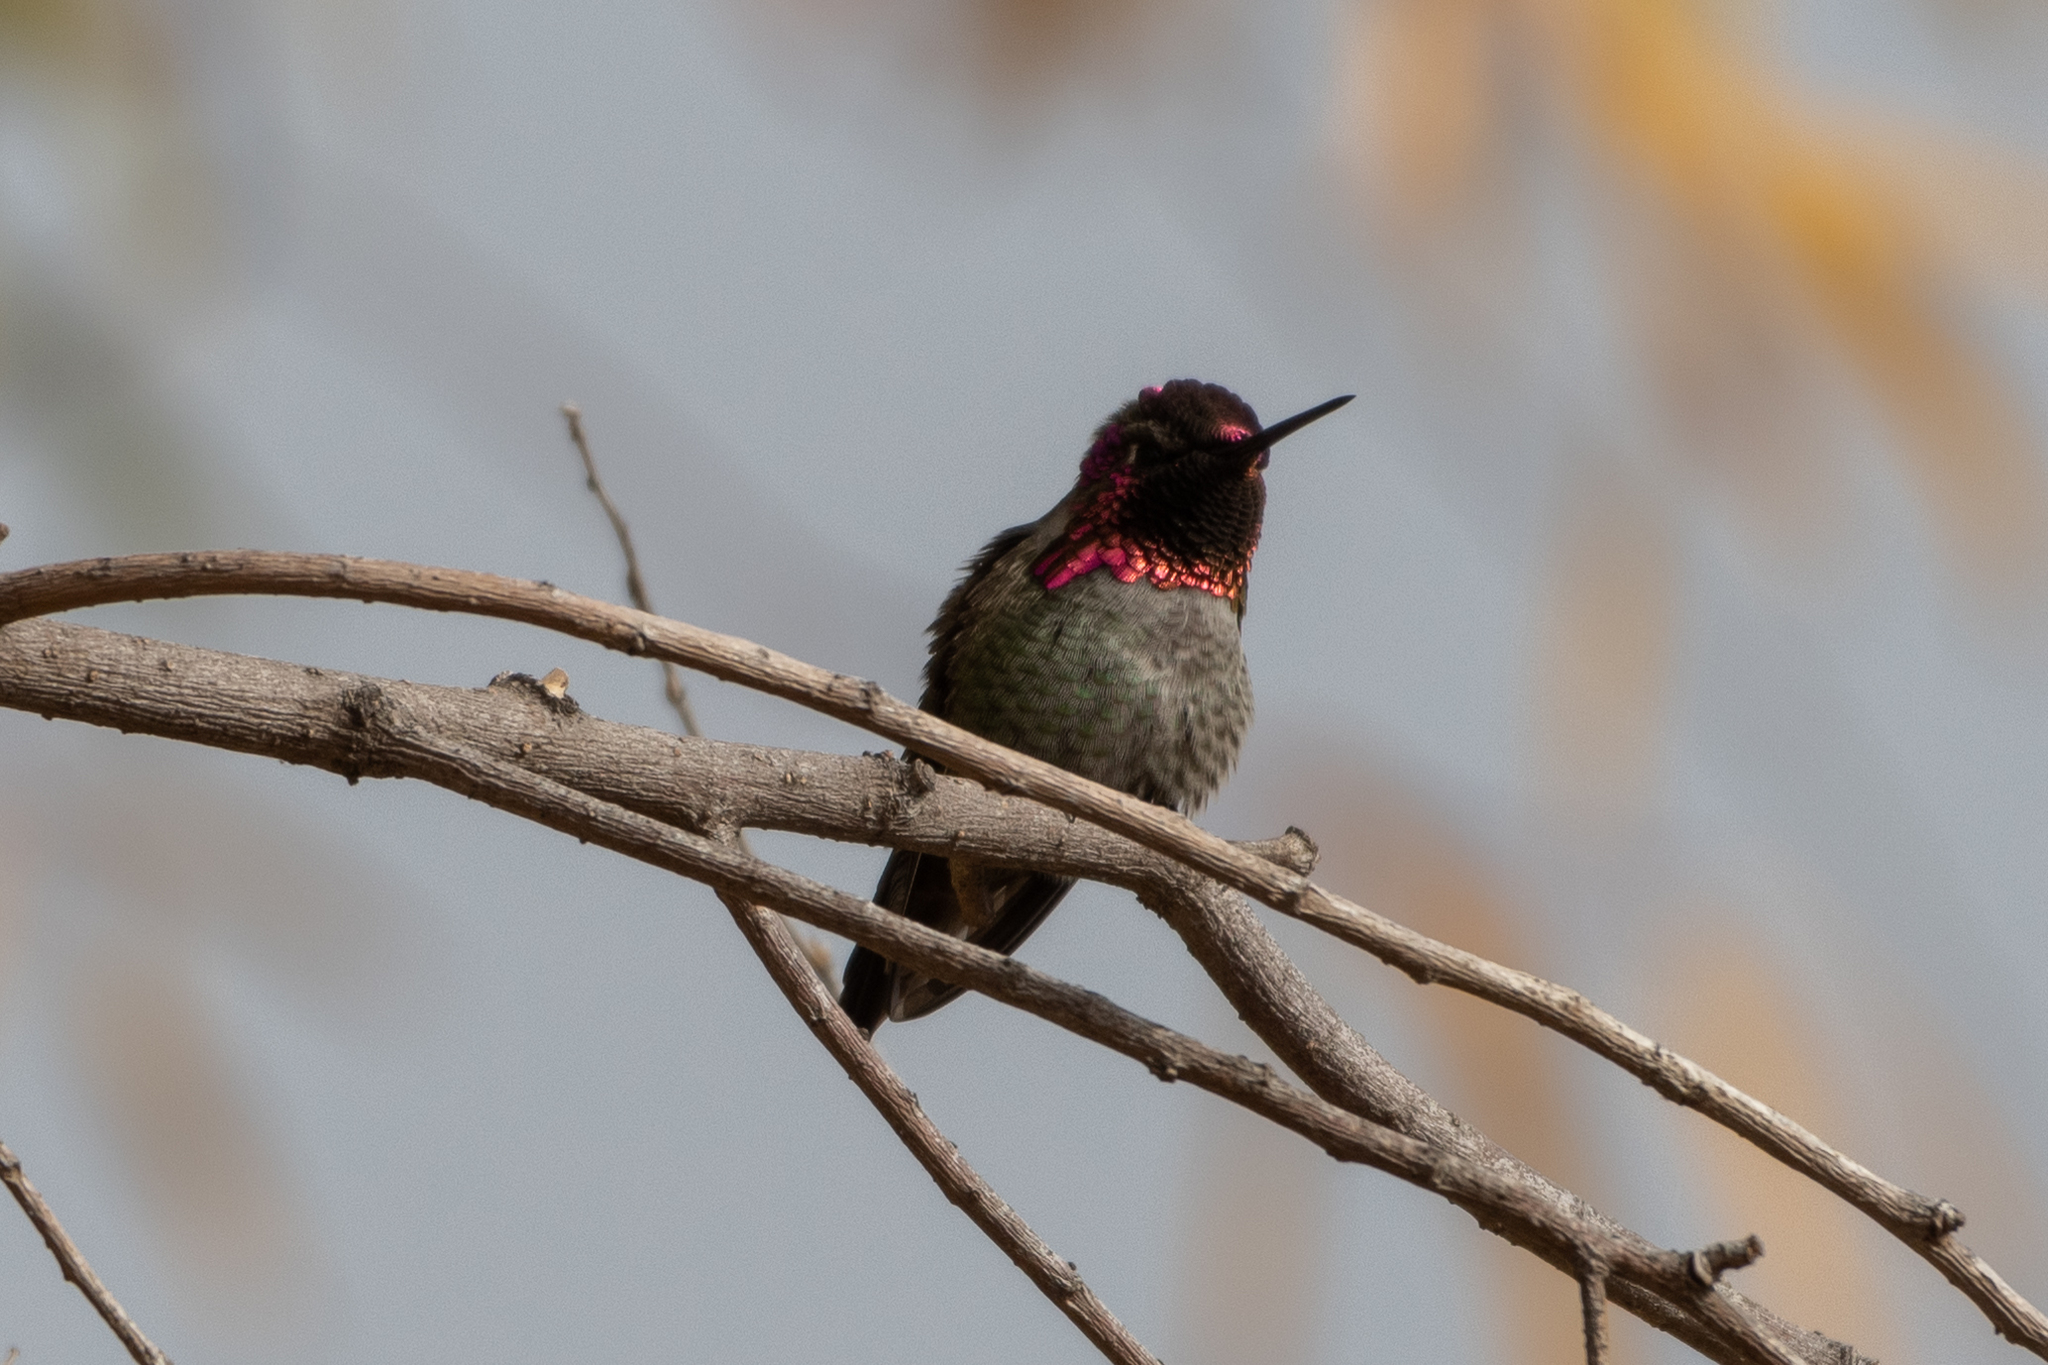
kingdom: Animalia
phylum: Chordata
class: Aves
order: Apodiformes
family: Trochilidae
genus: Calypte
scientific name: Calypte anna
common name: Anna's hummingbird
